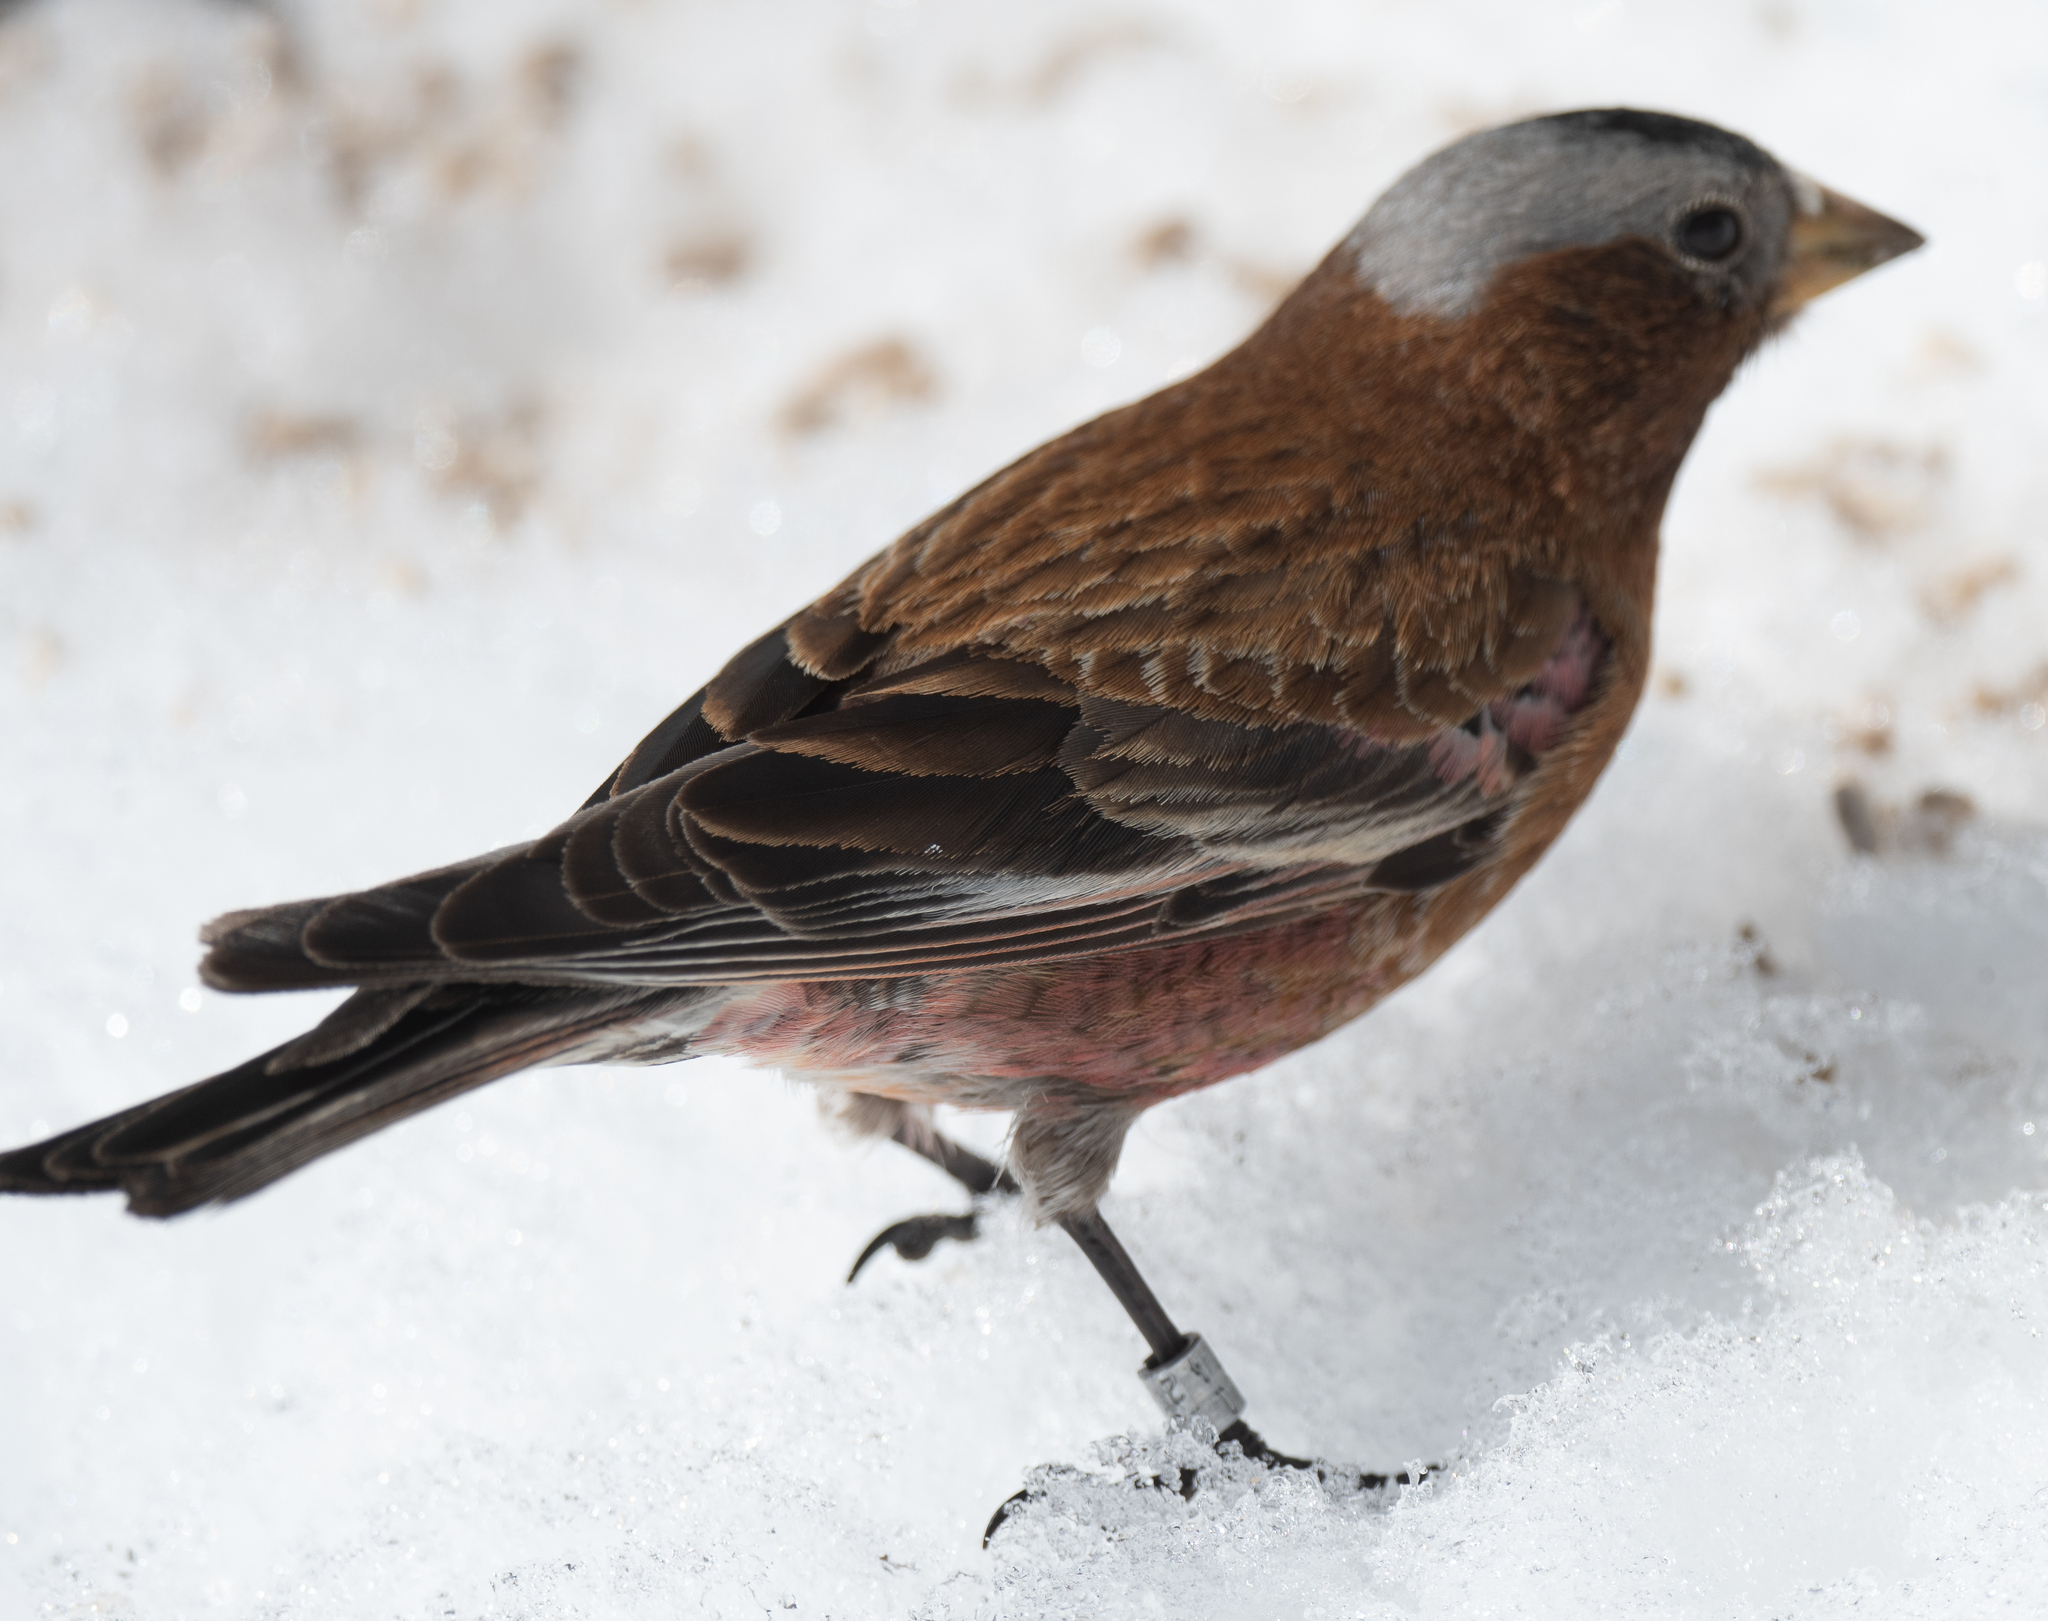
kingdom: Animalia
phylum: Chordata
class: Aves
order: Passeriformes
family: Fringillidae
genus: Leucosticte
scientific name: Leucosticte tephrocotis
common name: Gray-crowned rosy-finch
